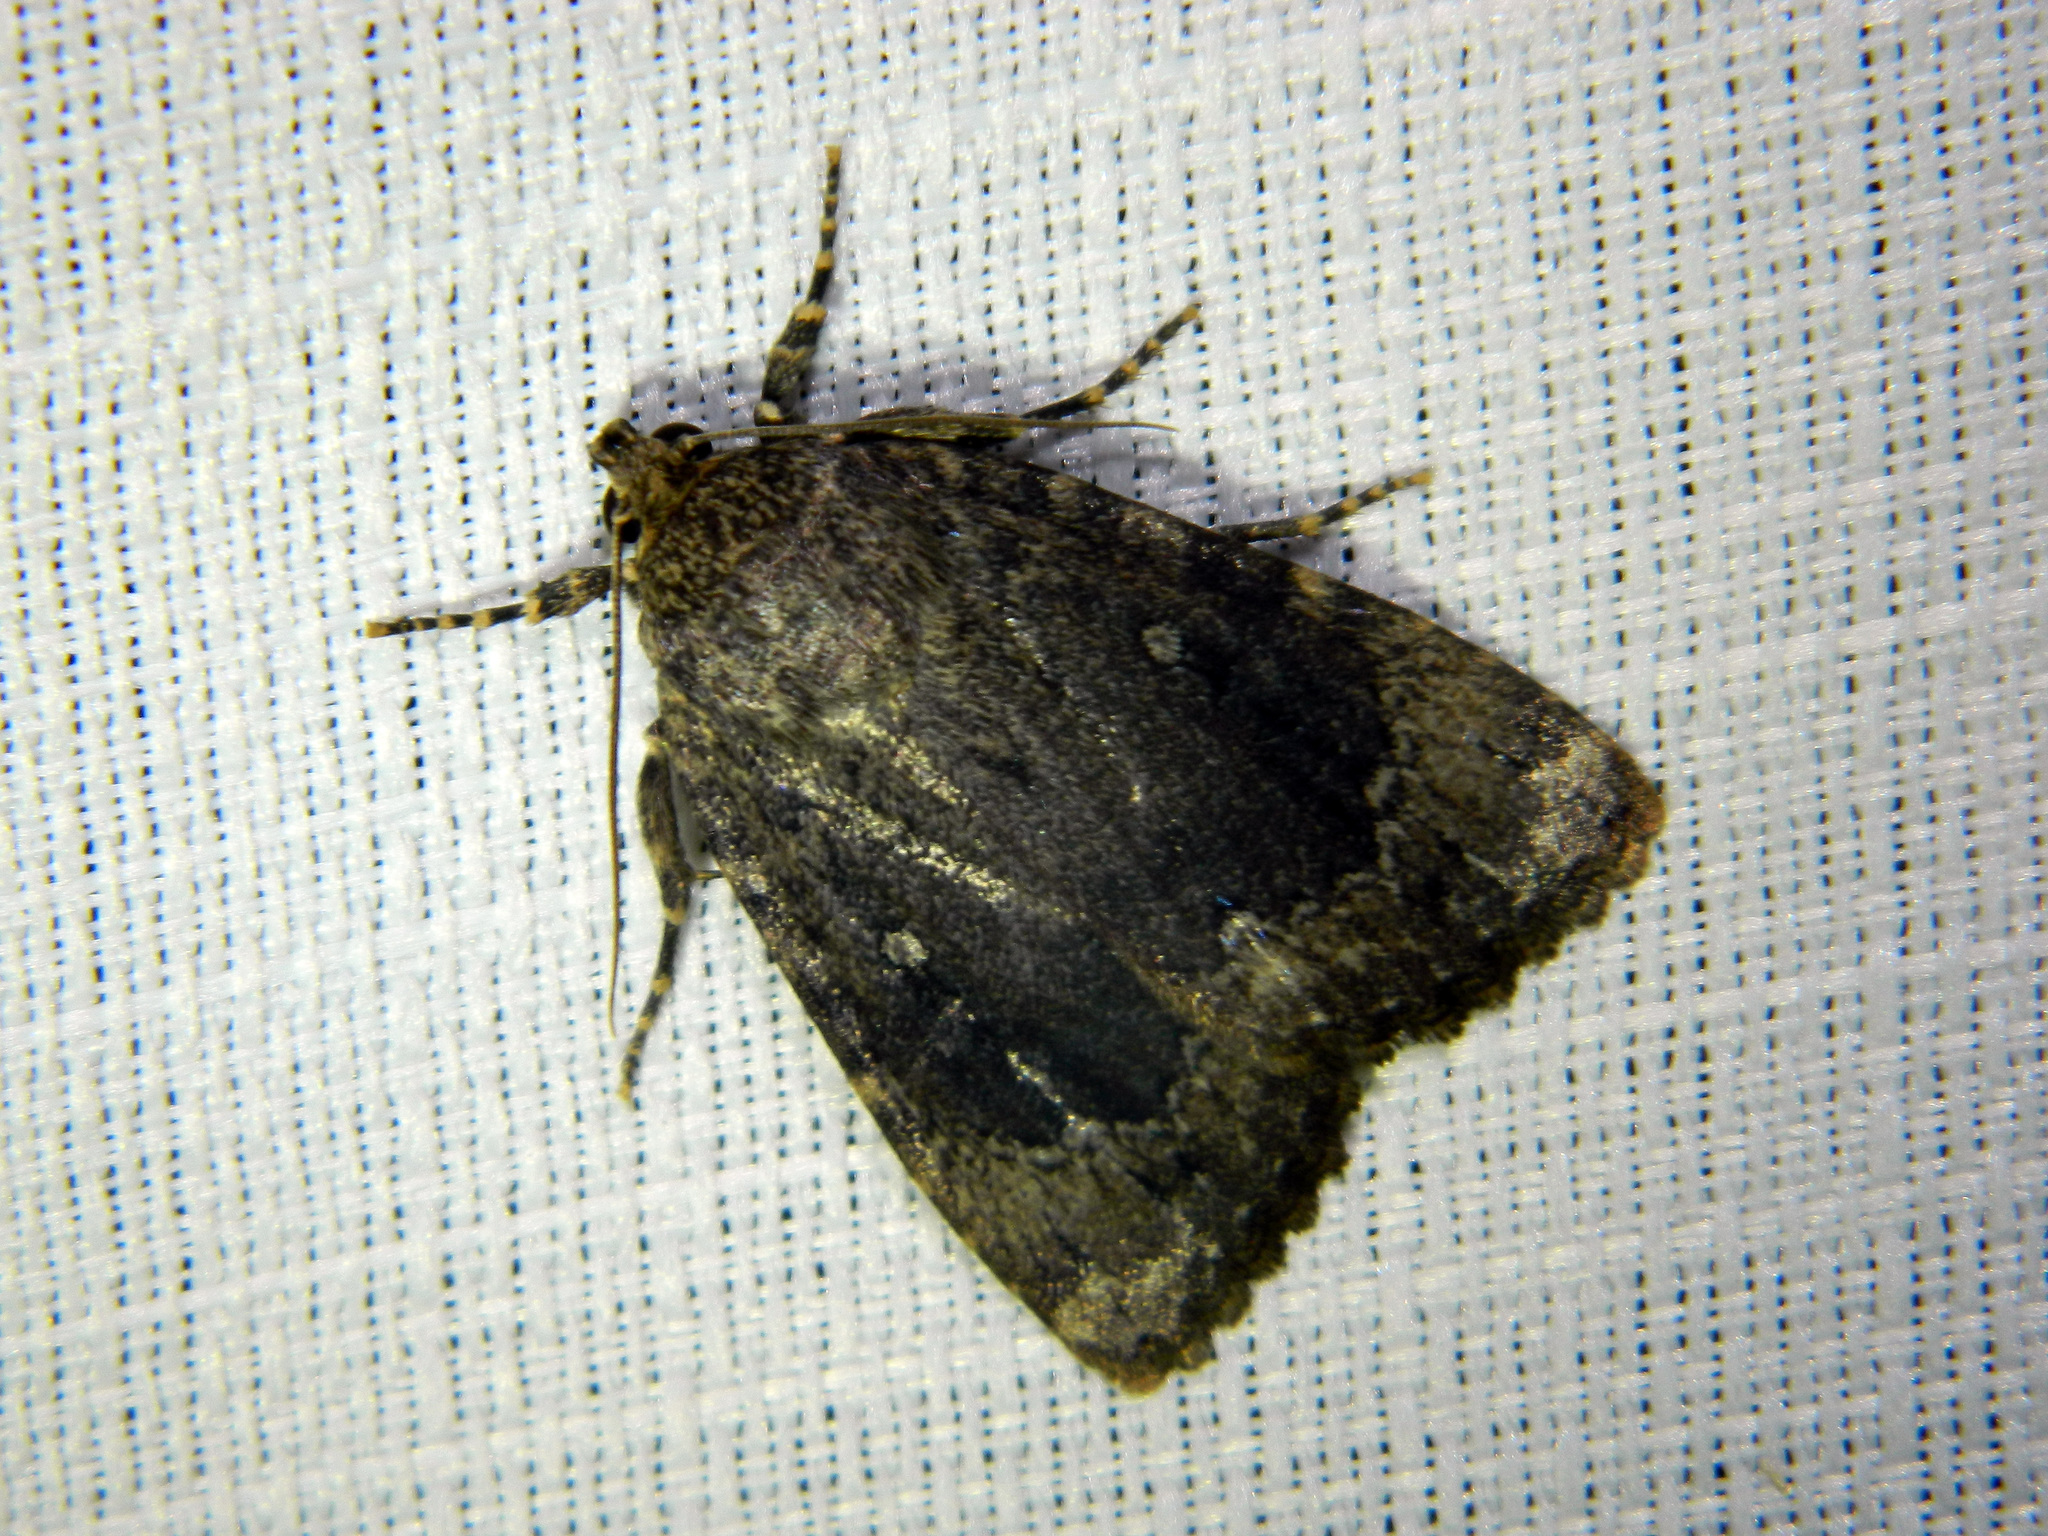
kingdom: Animalia
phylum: Arthropoda
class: Insecta
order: Lepidoptera
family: Noctuidae
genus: Amphipyra
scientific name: Amphipyra pyramidoides
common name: American copper underwing
